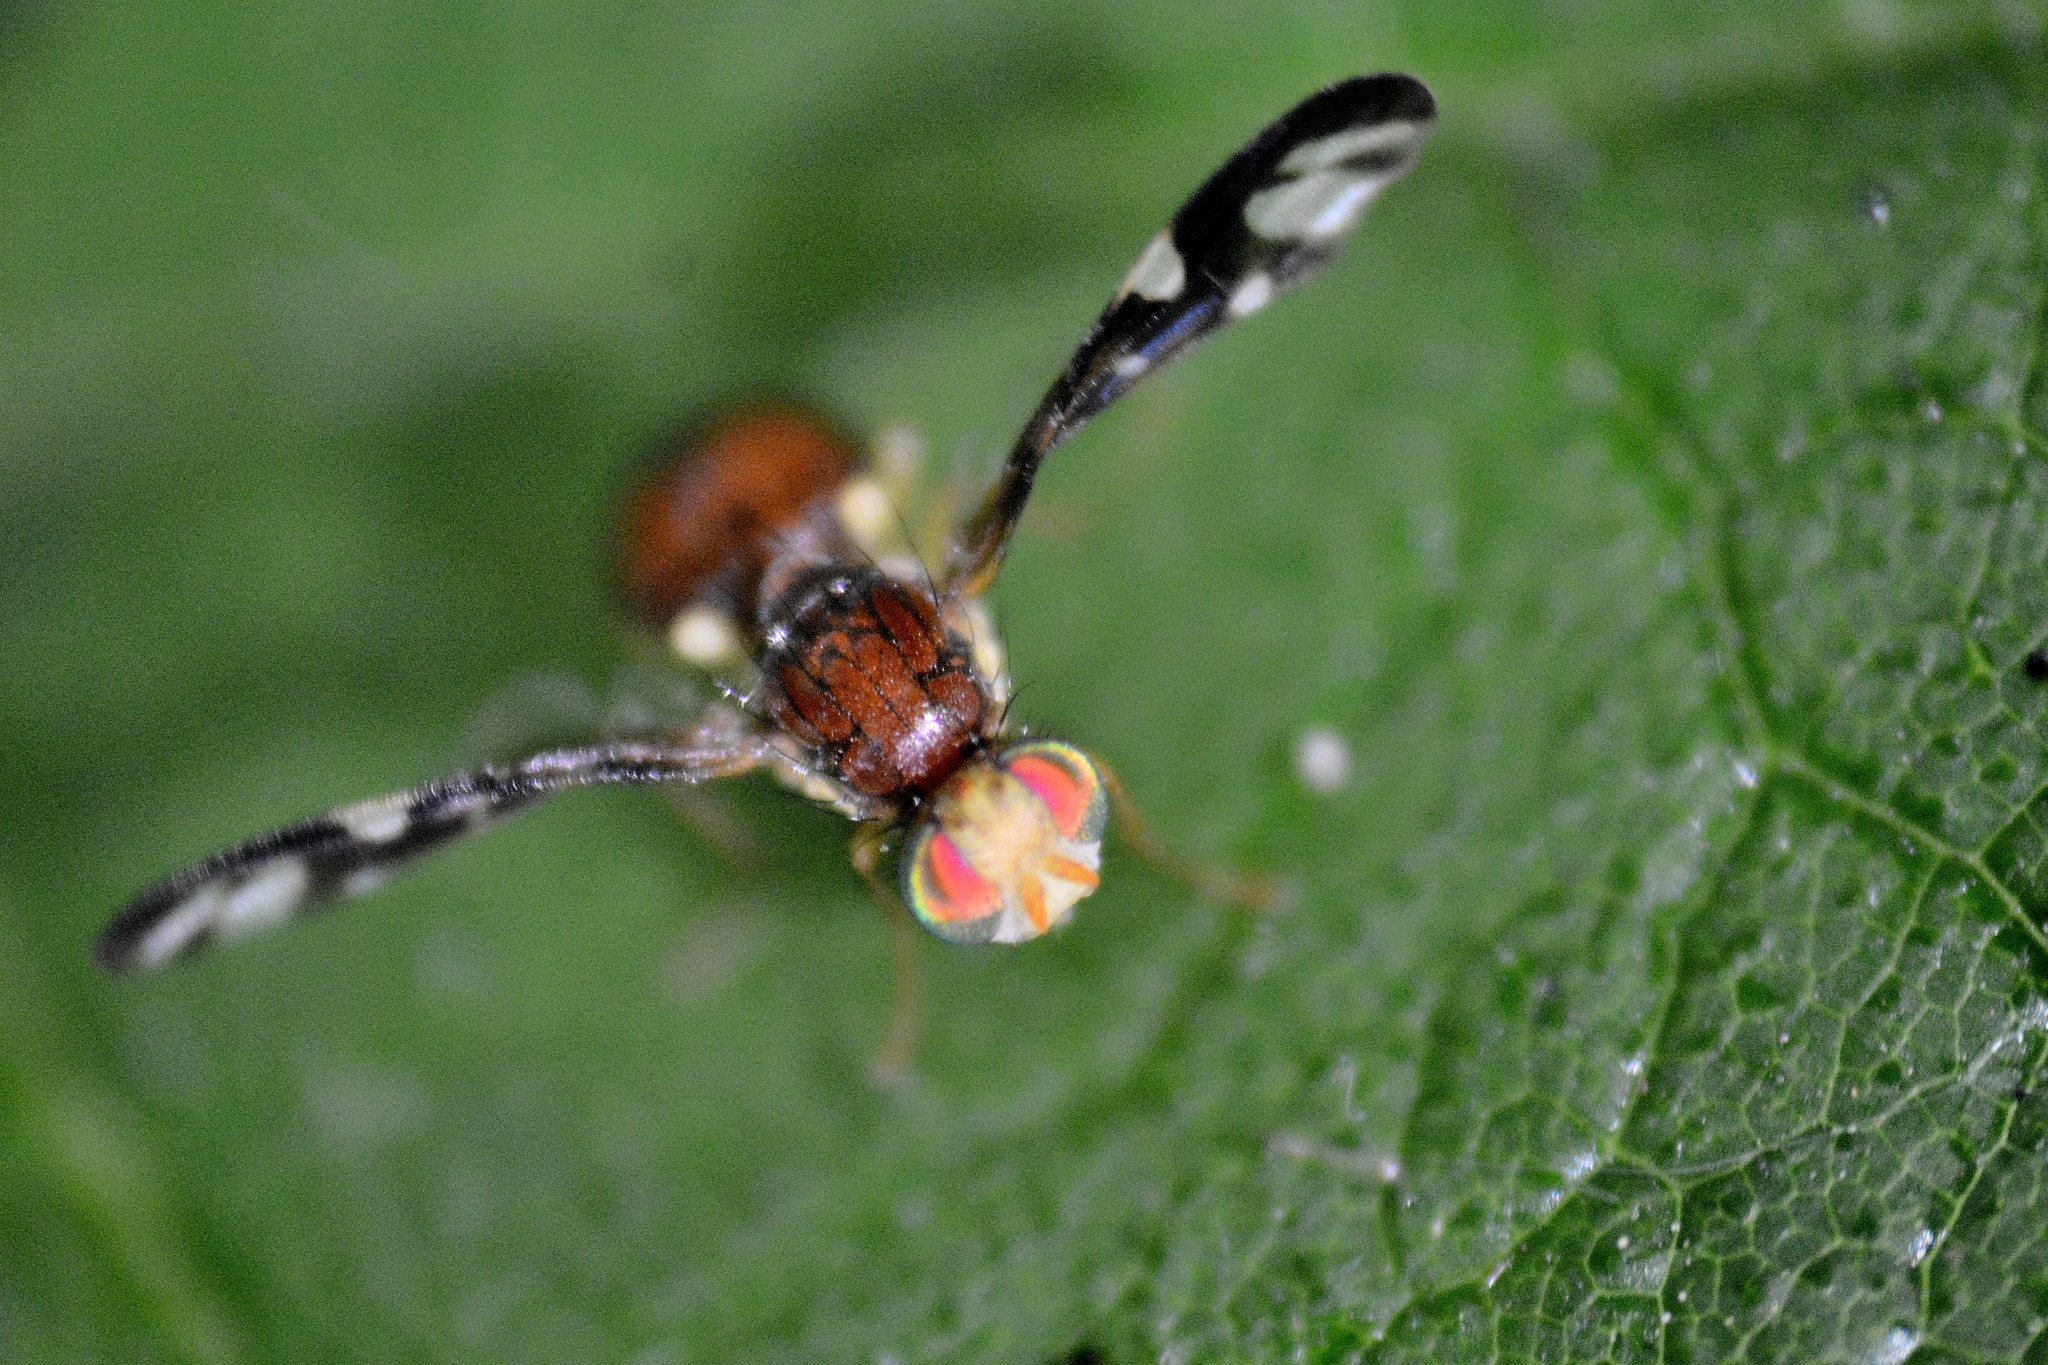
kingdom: Animalia
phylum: Arthropoda
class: Insecta
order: Diptera
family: Tephritidae
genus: Euleia
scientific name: Euleia heraclei
